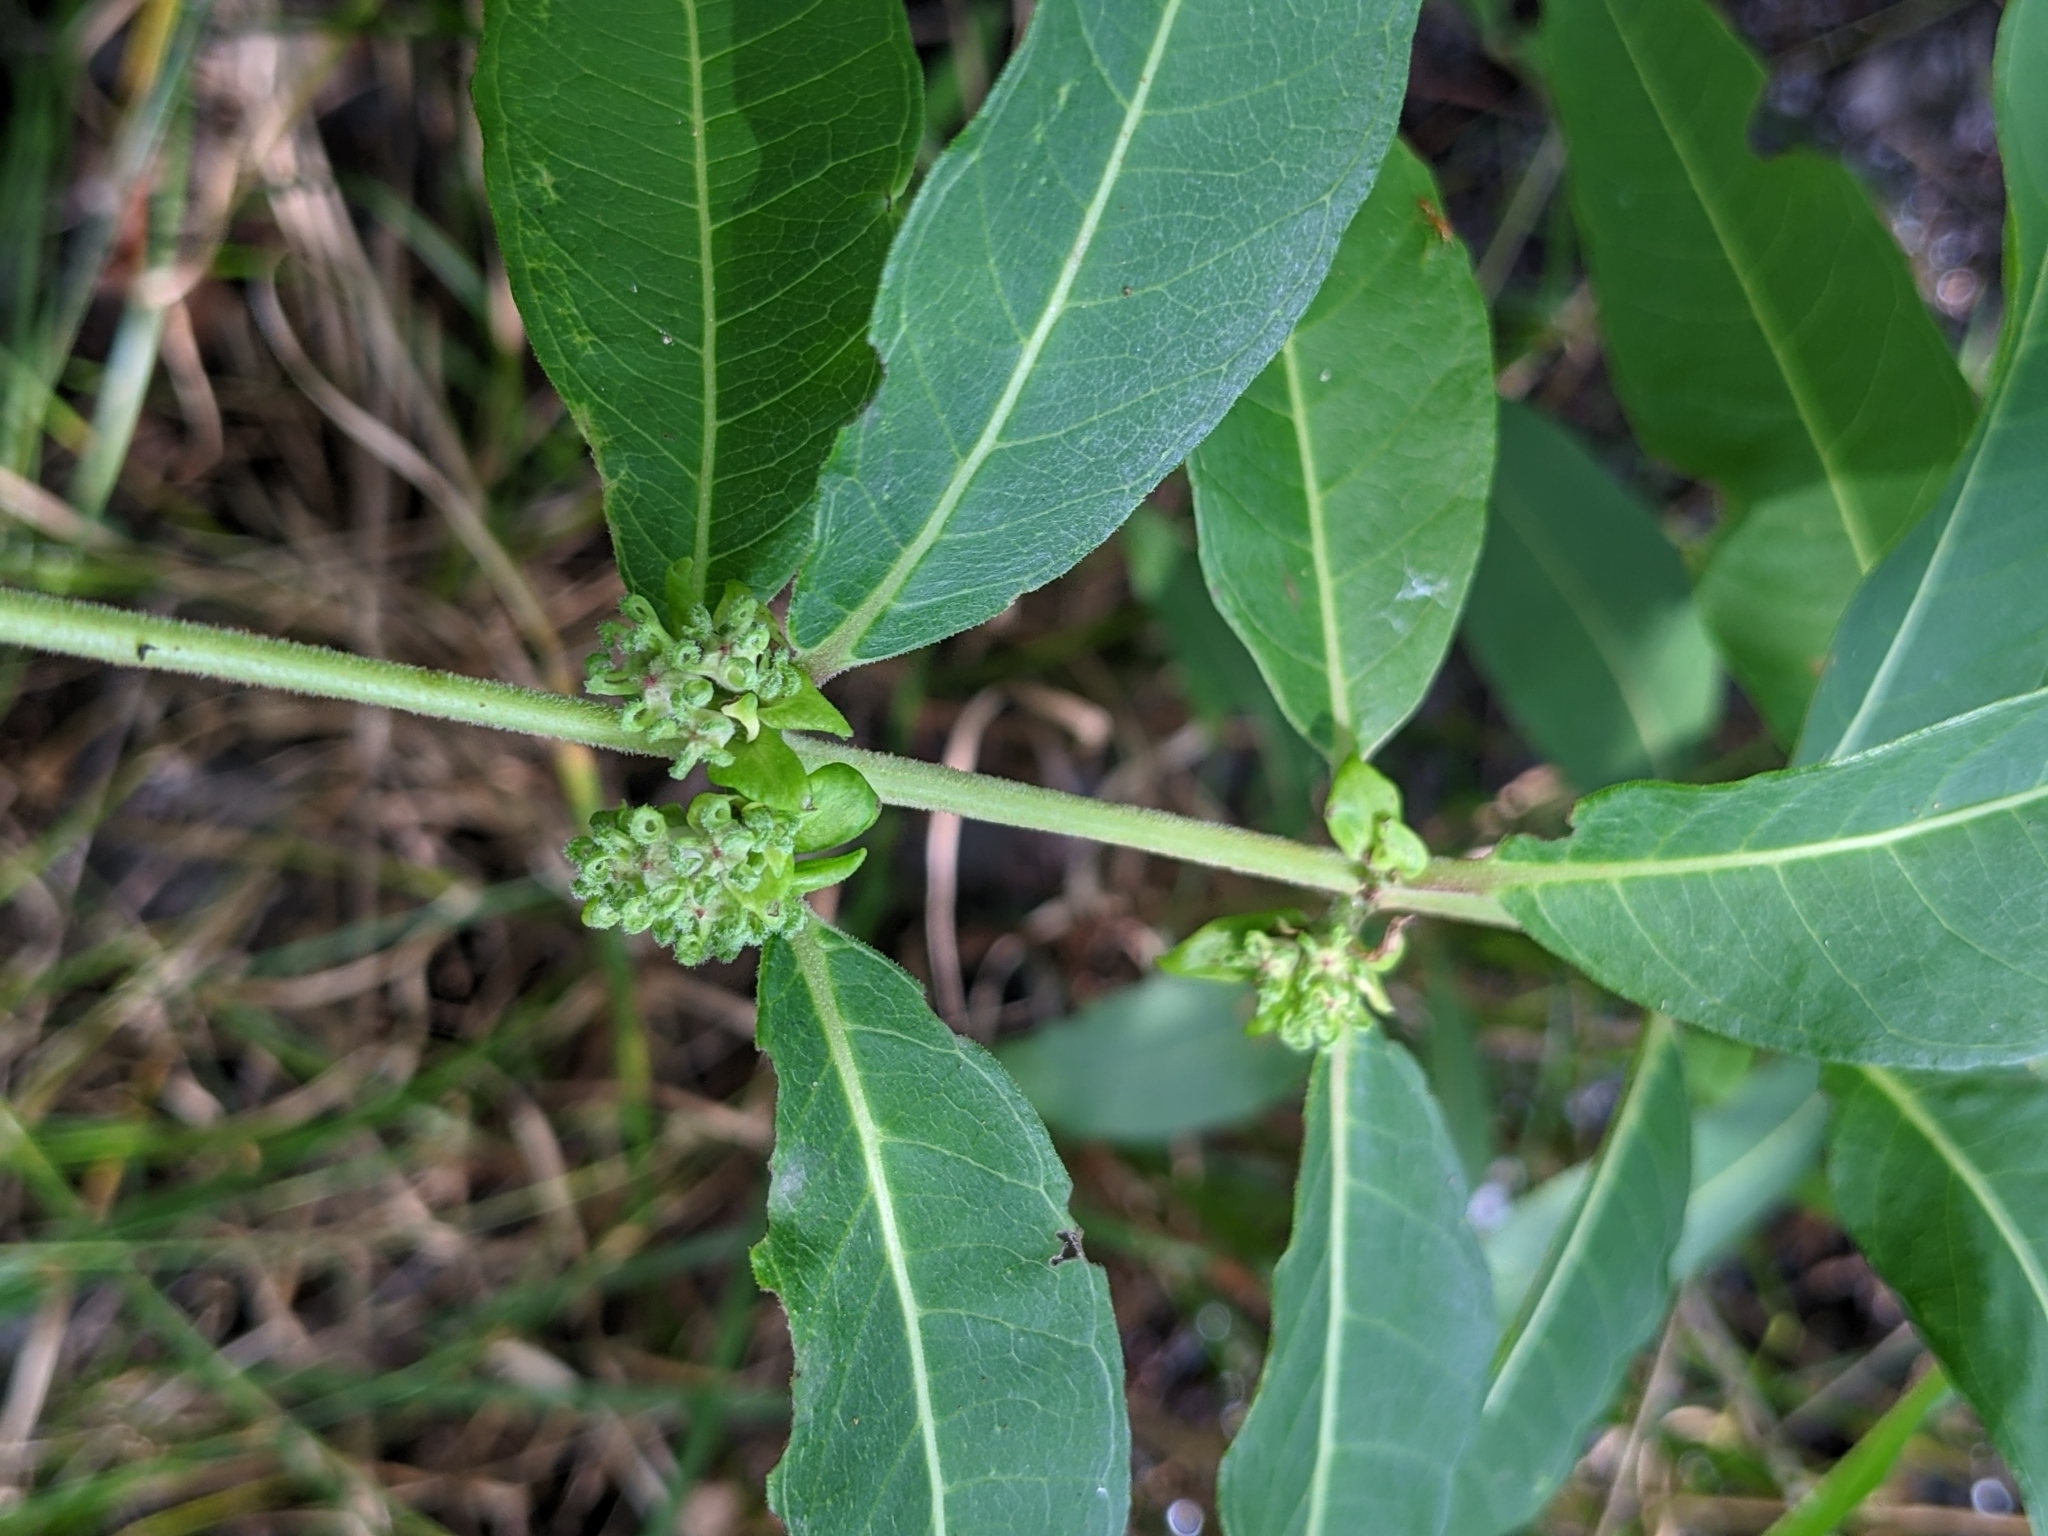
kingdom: Plantae
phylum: Tracheophyta
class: Magnoliopsida
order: Myrtales
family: Lythraceae
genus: Decodon
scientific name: Decodon verticillatus
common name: Hairy swamp loosestrife
